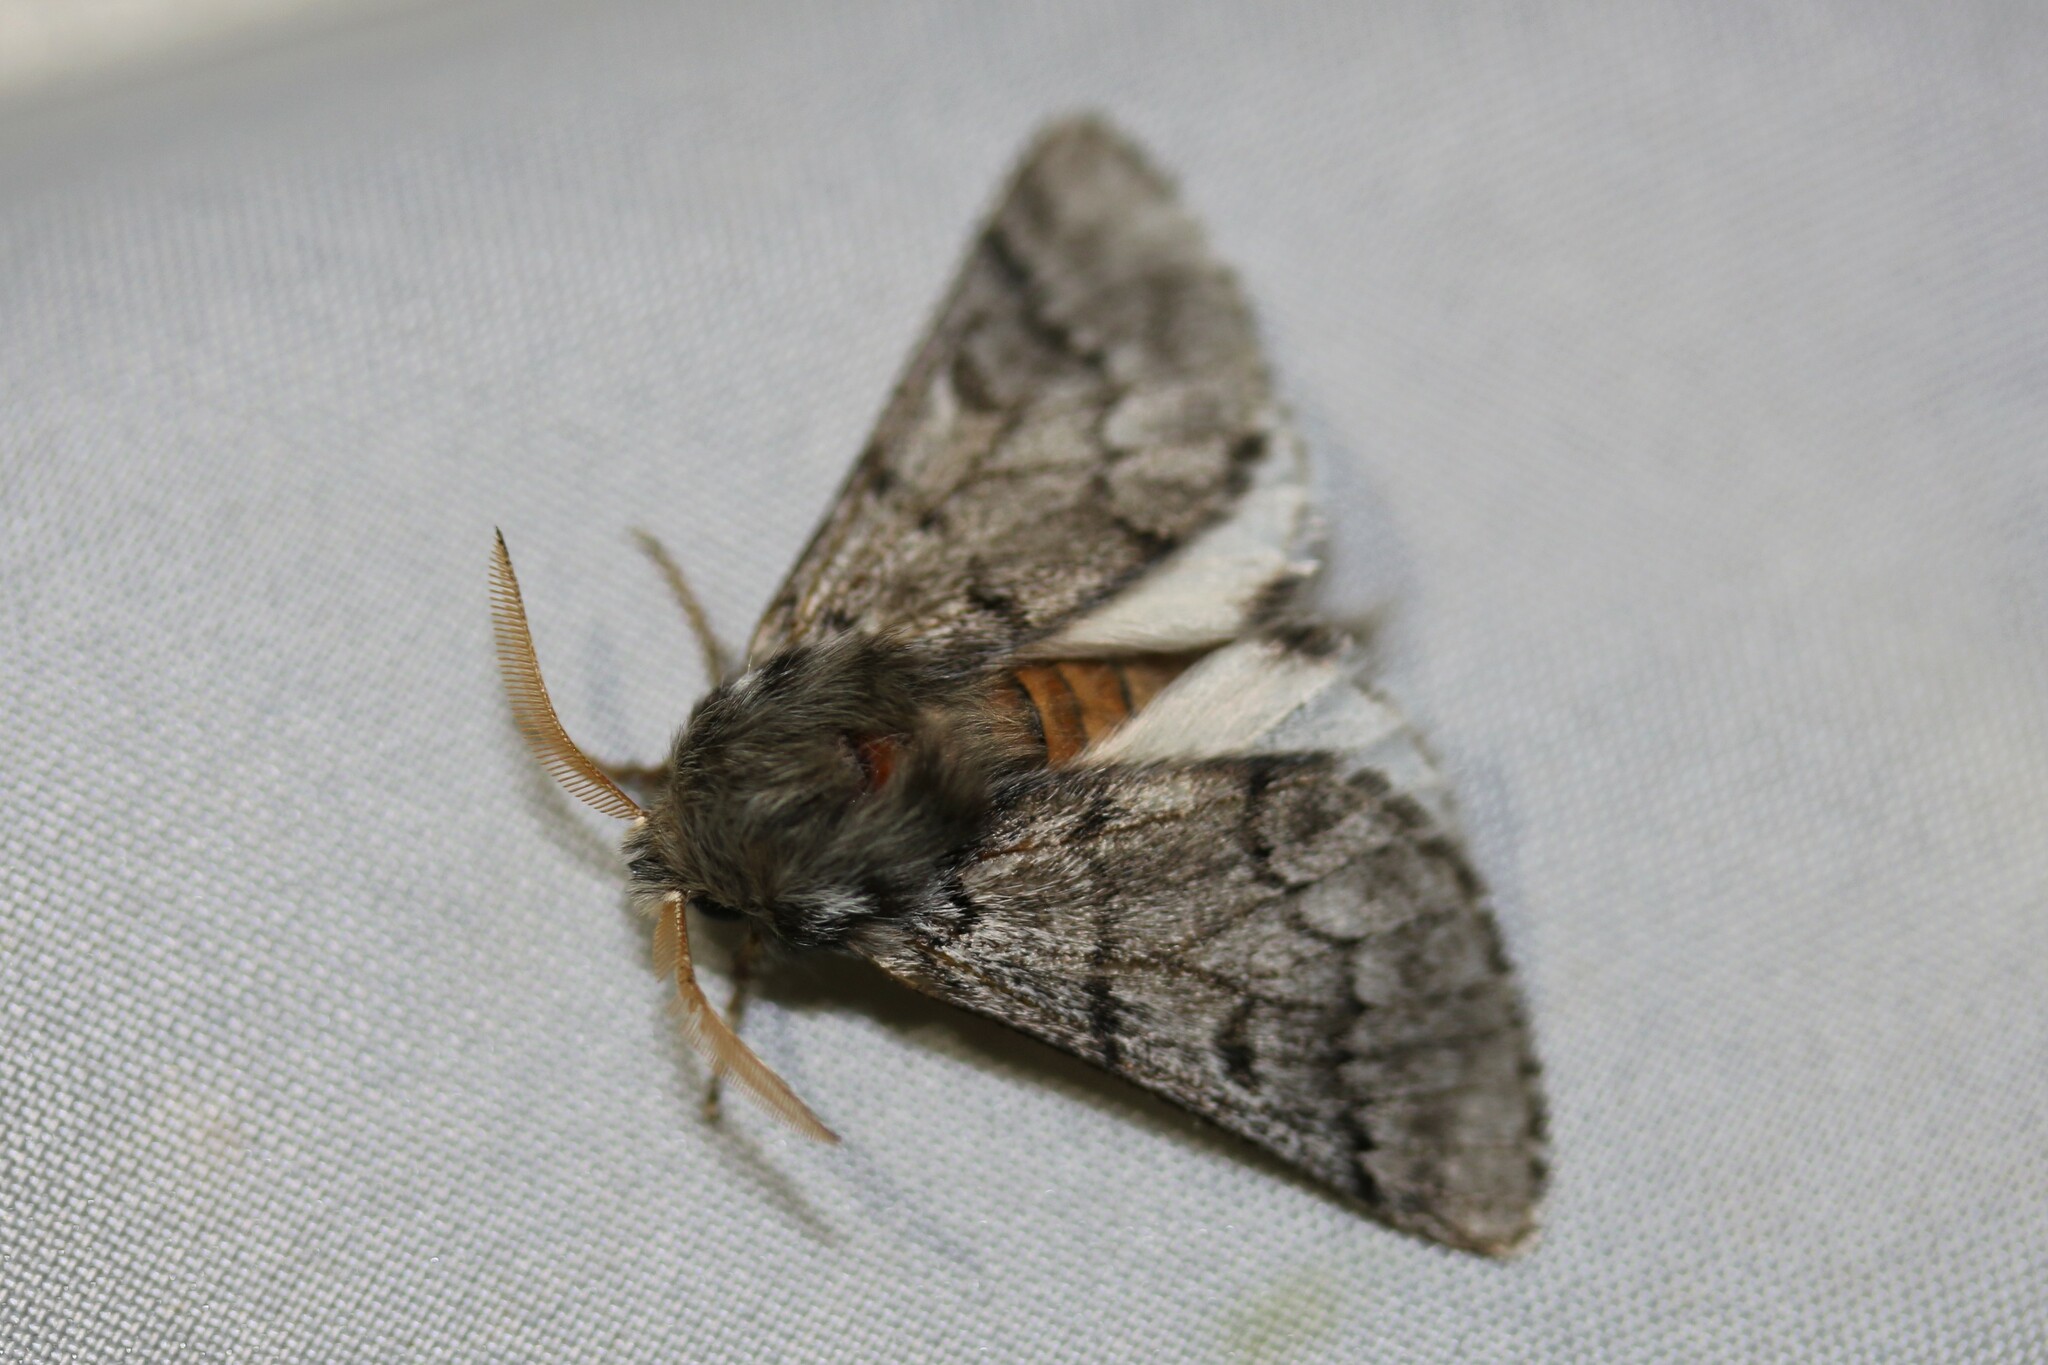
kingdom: Animalia
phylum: Arthropoda
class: Insecta
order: Lepidoptera
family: Notodontidae
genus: Thaumetopoea
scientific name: Thaumetopoea pityocampa
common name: Pine processionary
